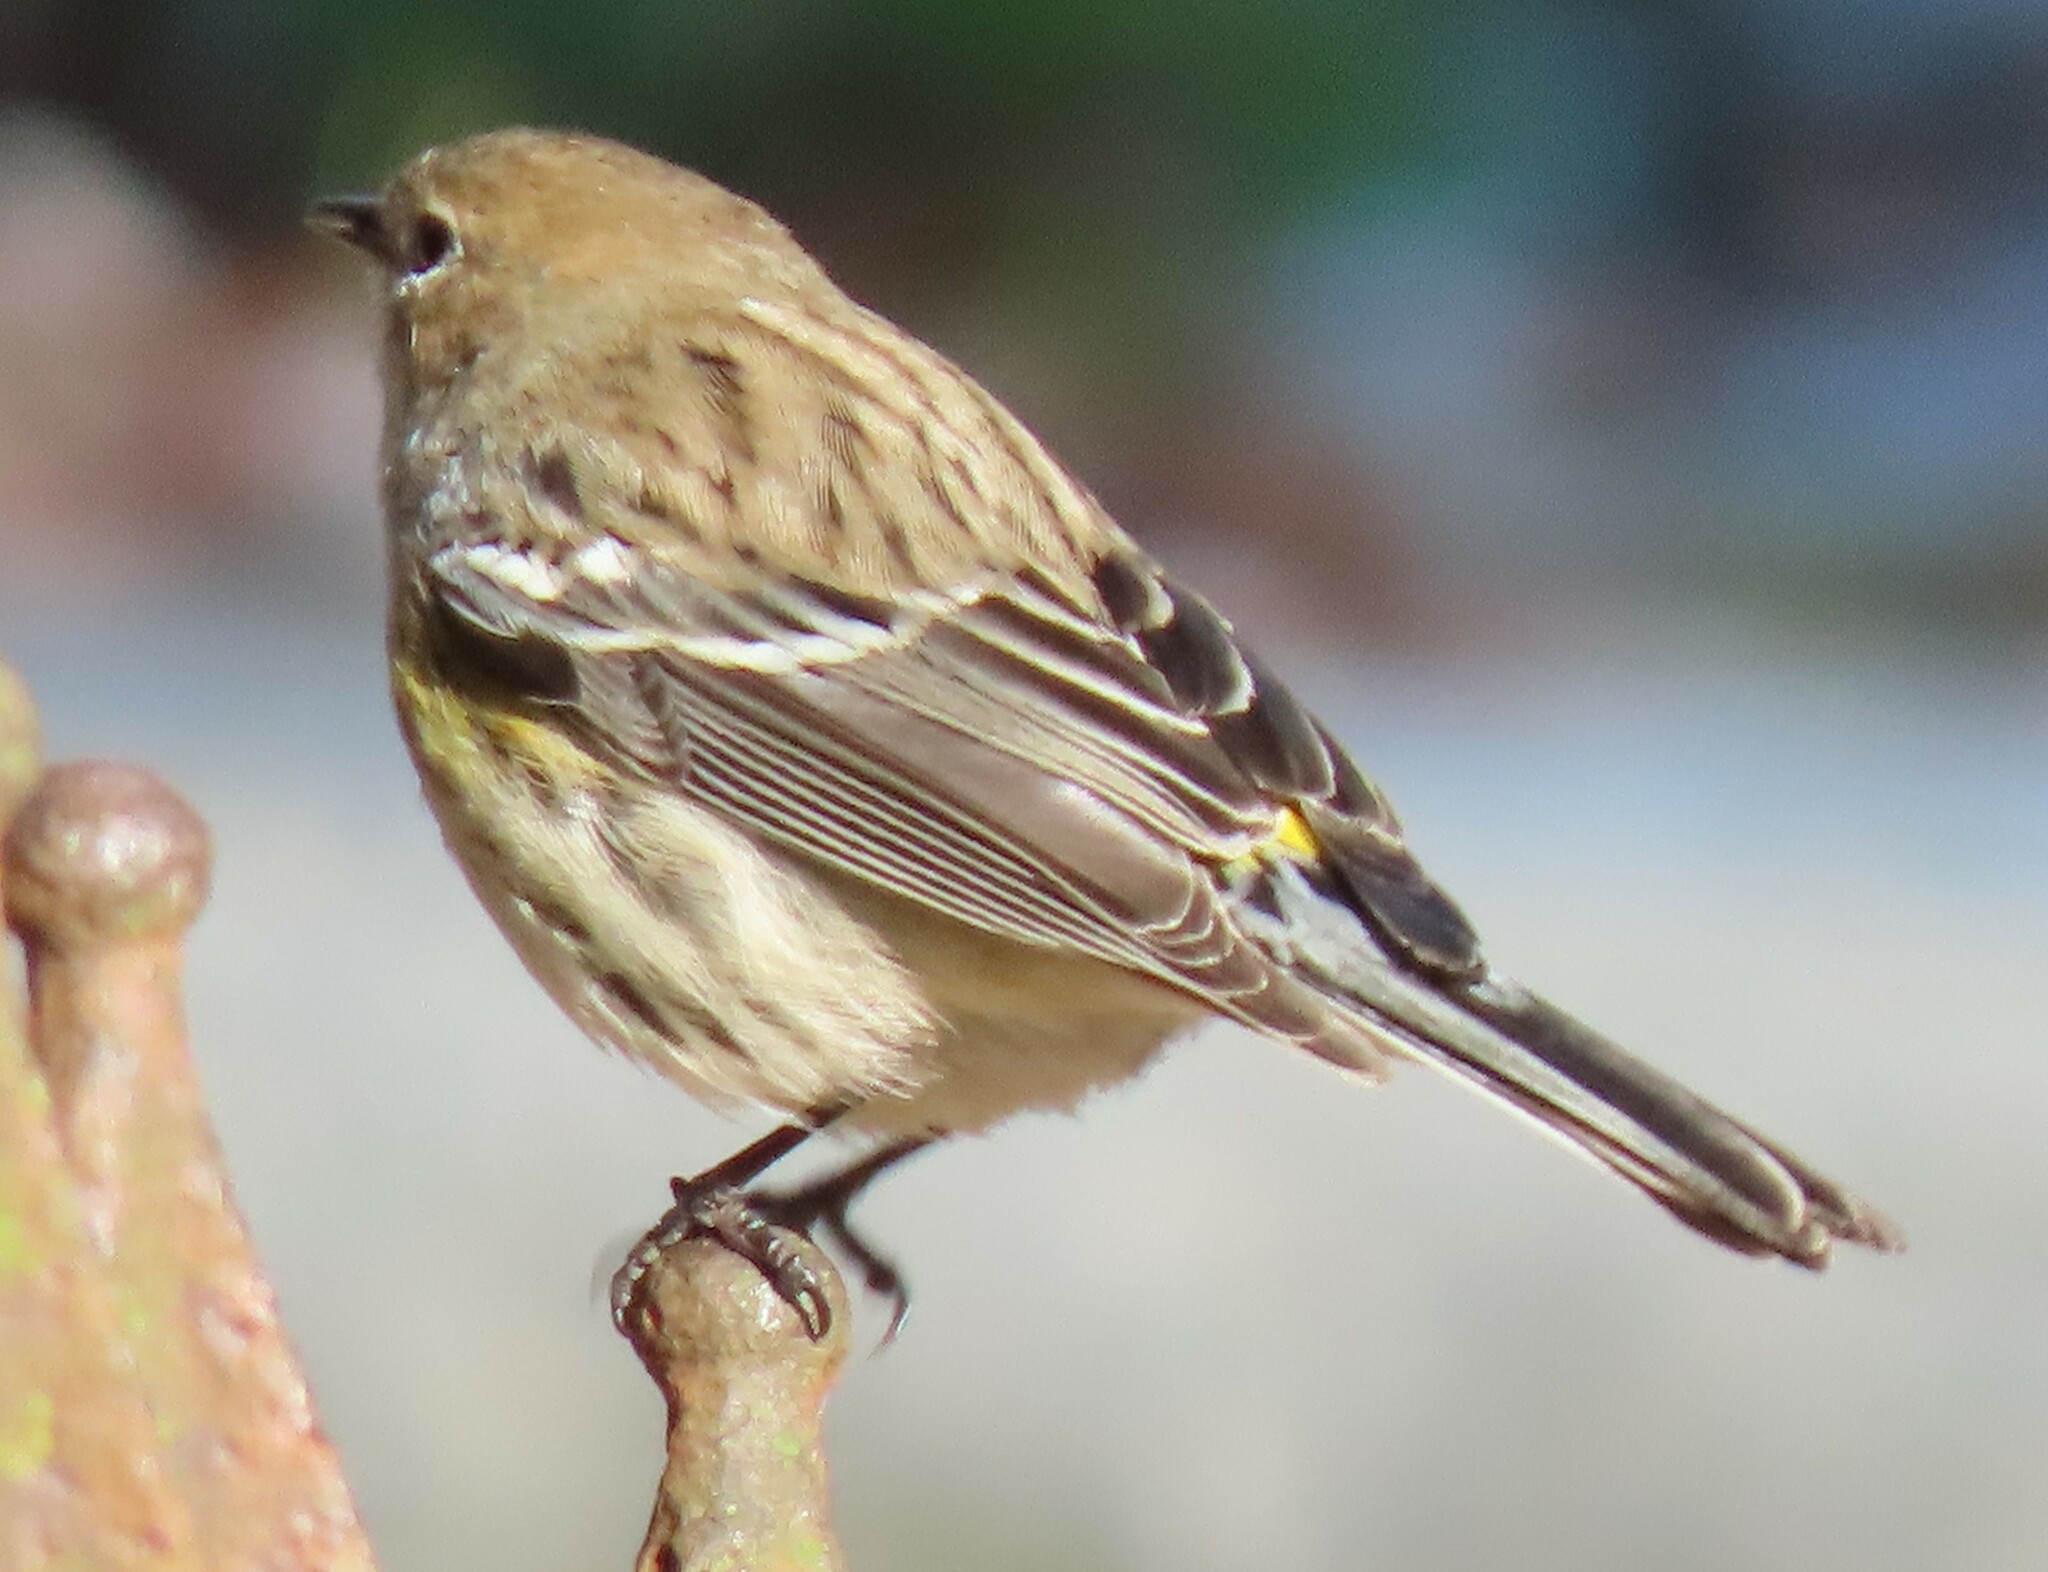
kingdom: Animalia
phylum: Chordata
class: Aves
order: Passeriformes
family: Parulidae
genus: Setophaga
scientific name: Setophaga coronata
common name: Myrtle warbler
